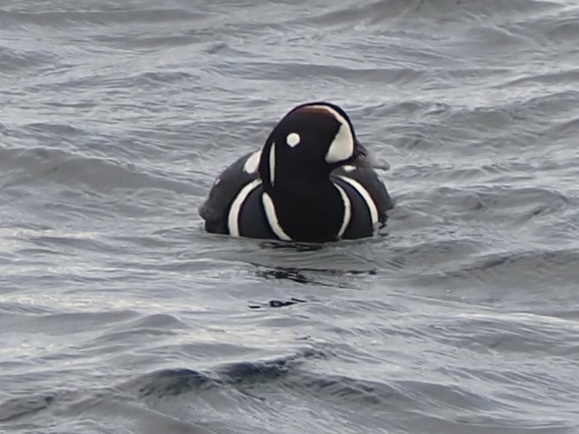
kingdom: Animalia
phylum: Chordata
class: Aves
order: Anseriformes
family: Anatidae
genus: Histrionicus
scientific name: Histrionicus histrionicus
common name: Harlequin duck
